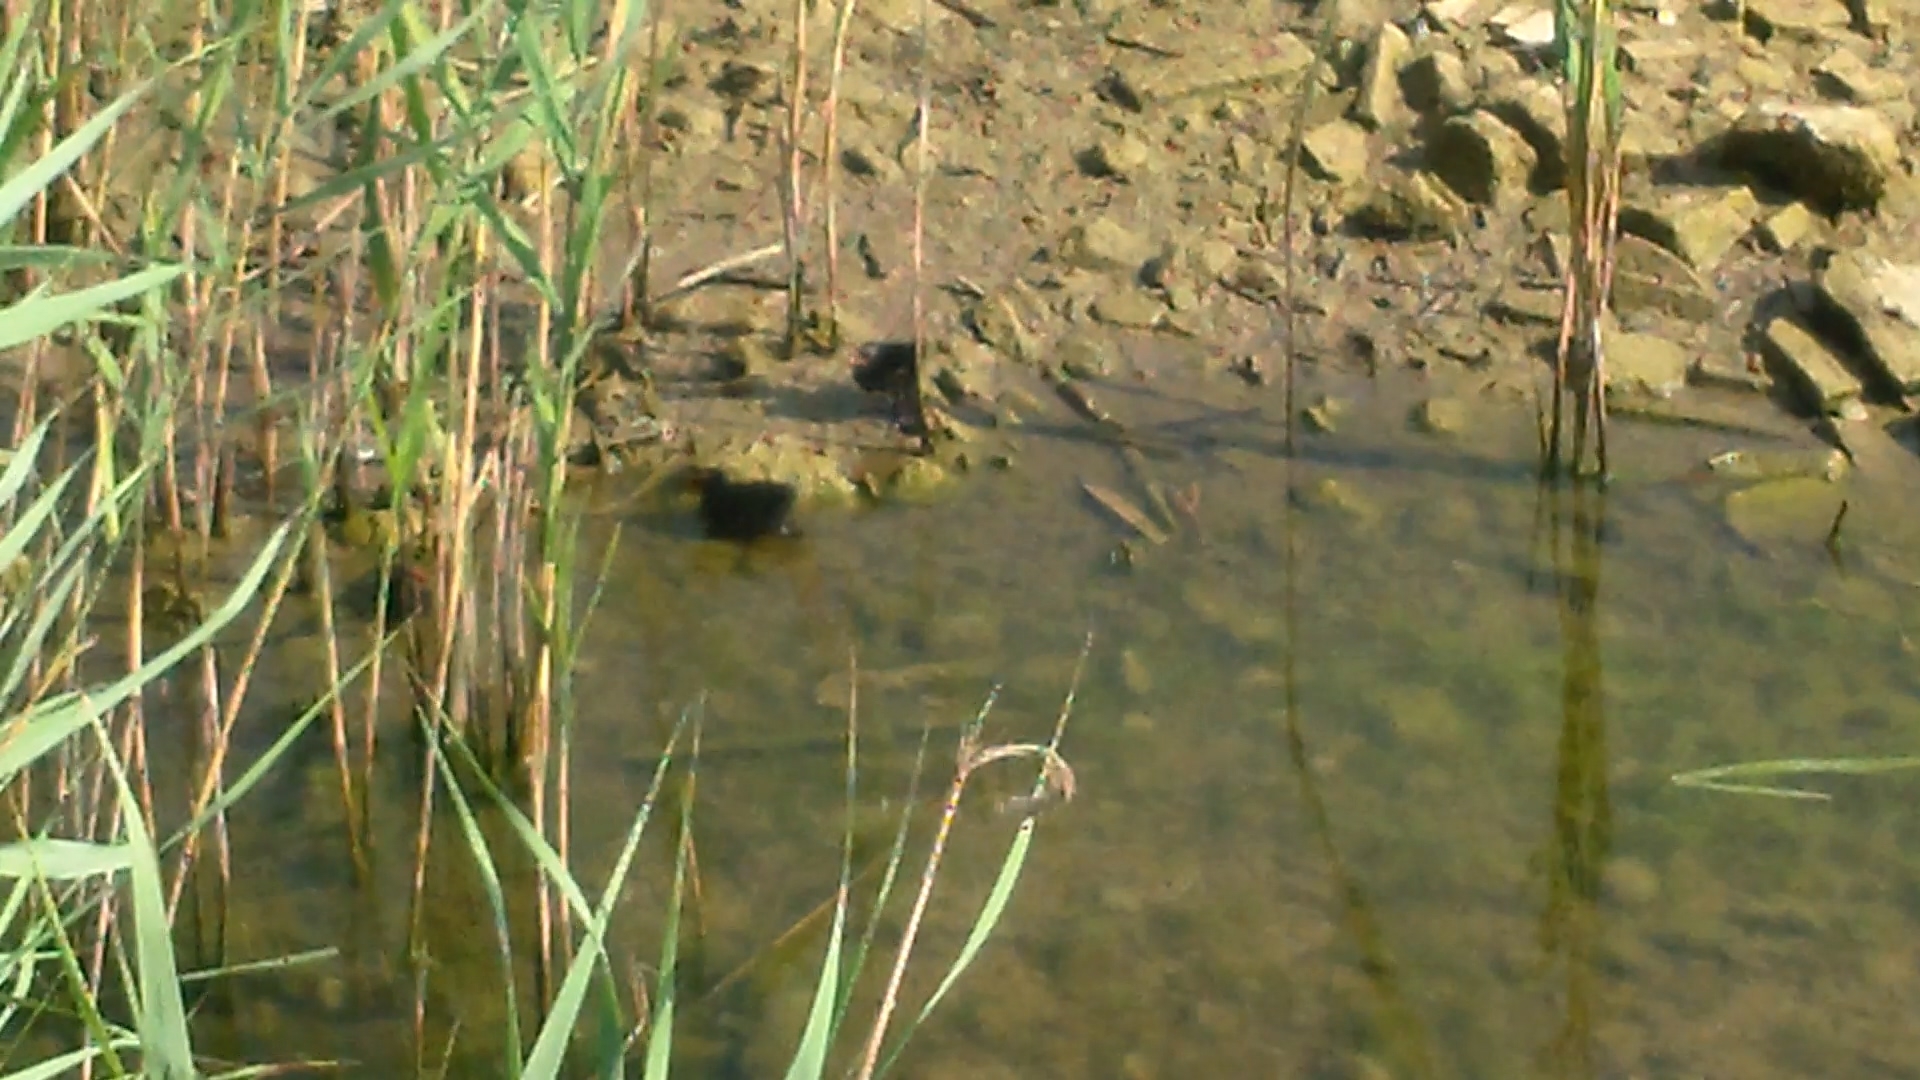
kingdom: Animalia
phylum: Chordata
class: Aves
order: Gruiformes
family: Rallidae
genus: Gallinula
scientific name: Gallinula chloropus
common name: Common moorhen
